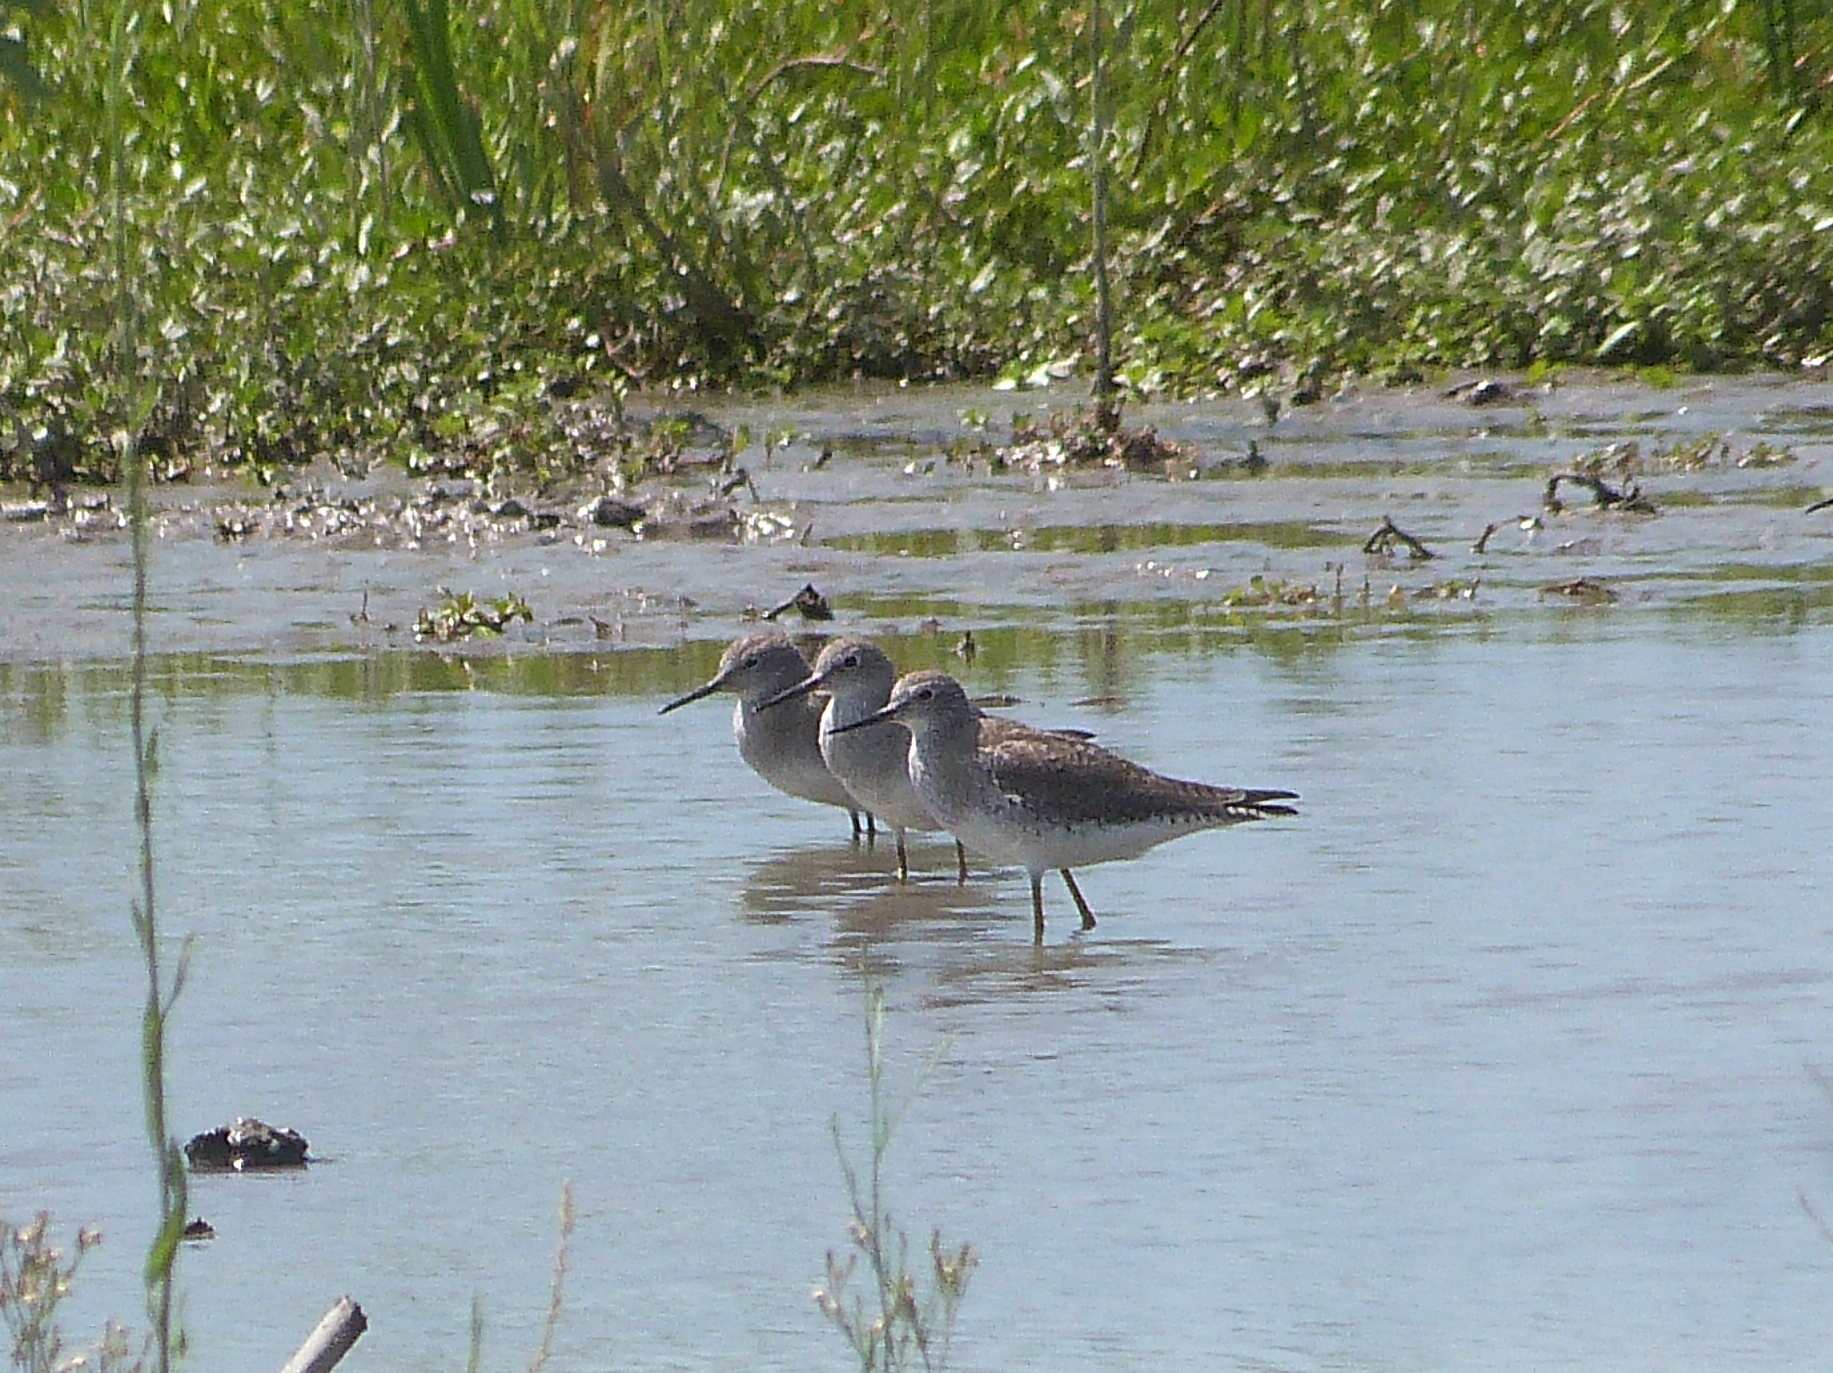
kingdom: Animalia
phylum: Chordata
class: Aves
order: Charadriiformes
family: Scolopacidae
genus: Tringa
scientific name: Tringa flavipes
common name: Lesser yellowlegs
